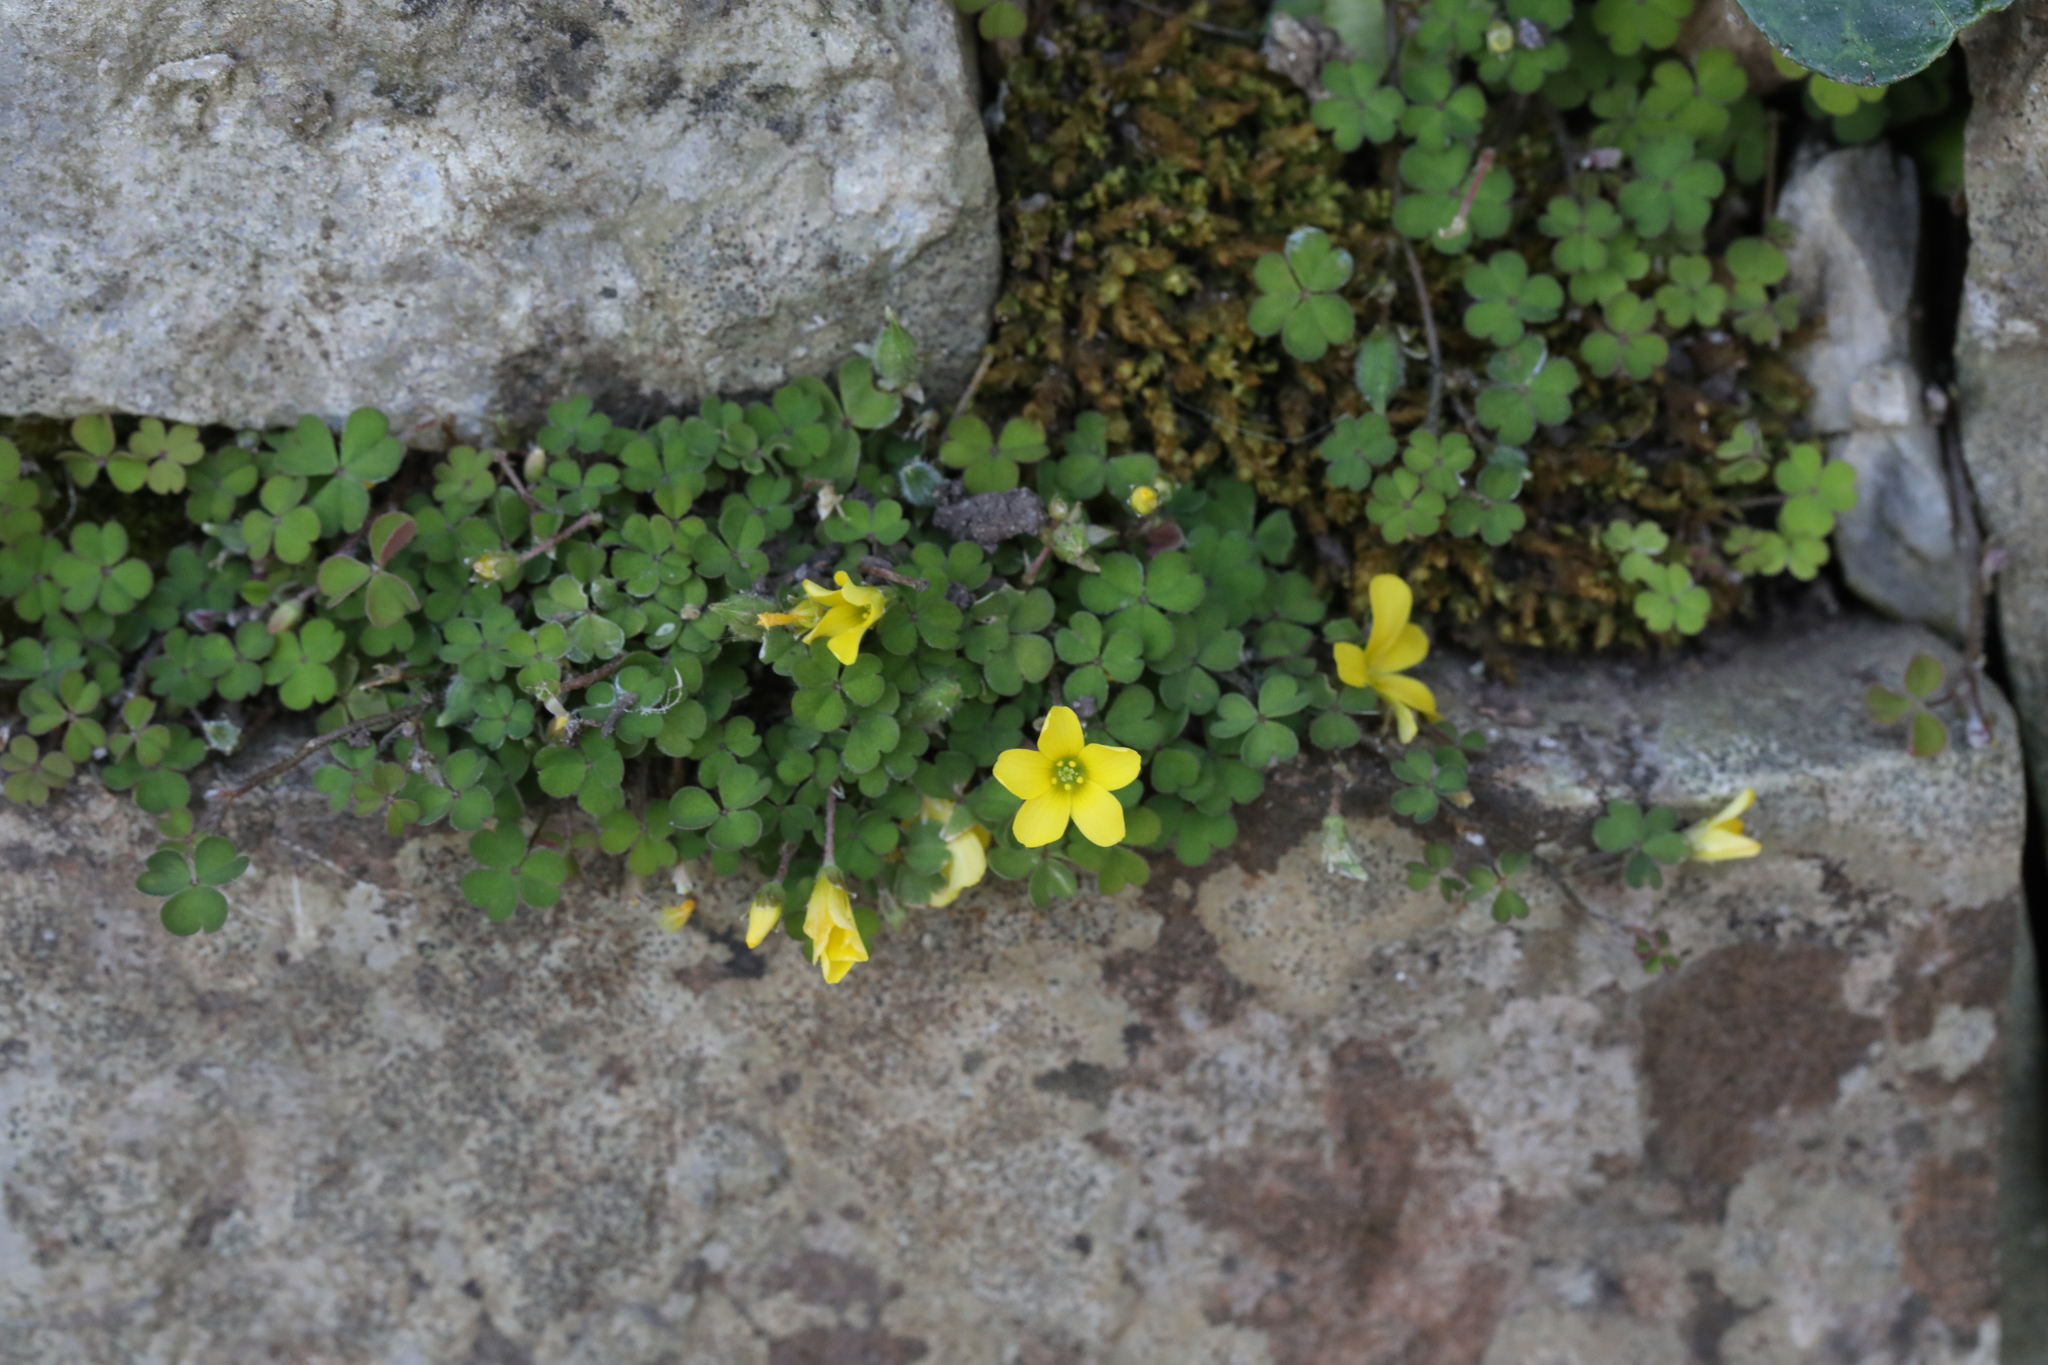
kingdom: Plantae
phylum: Tracheophyta
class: Magnoliopsida
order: Oxalidales
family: Oxalidaceae
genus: Oxalis
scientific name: Oxalis exilis
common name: Least yellow-sorrel
